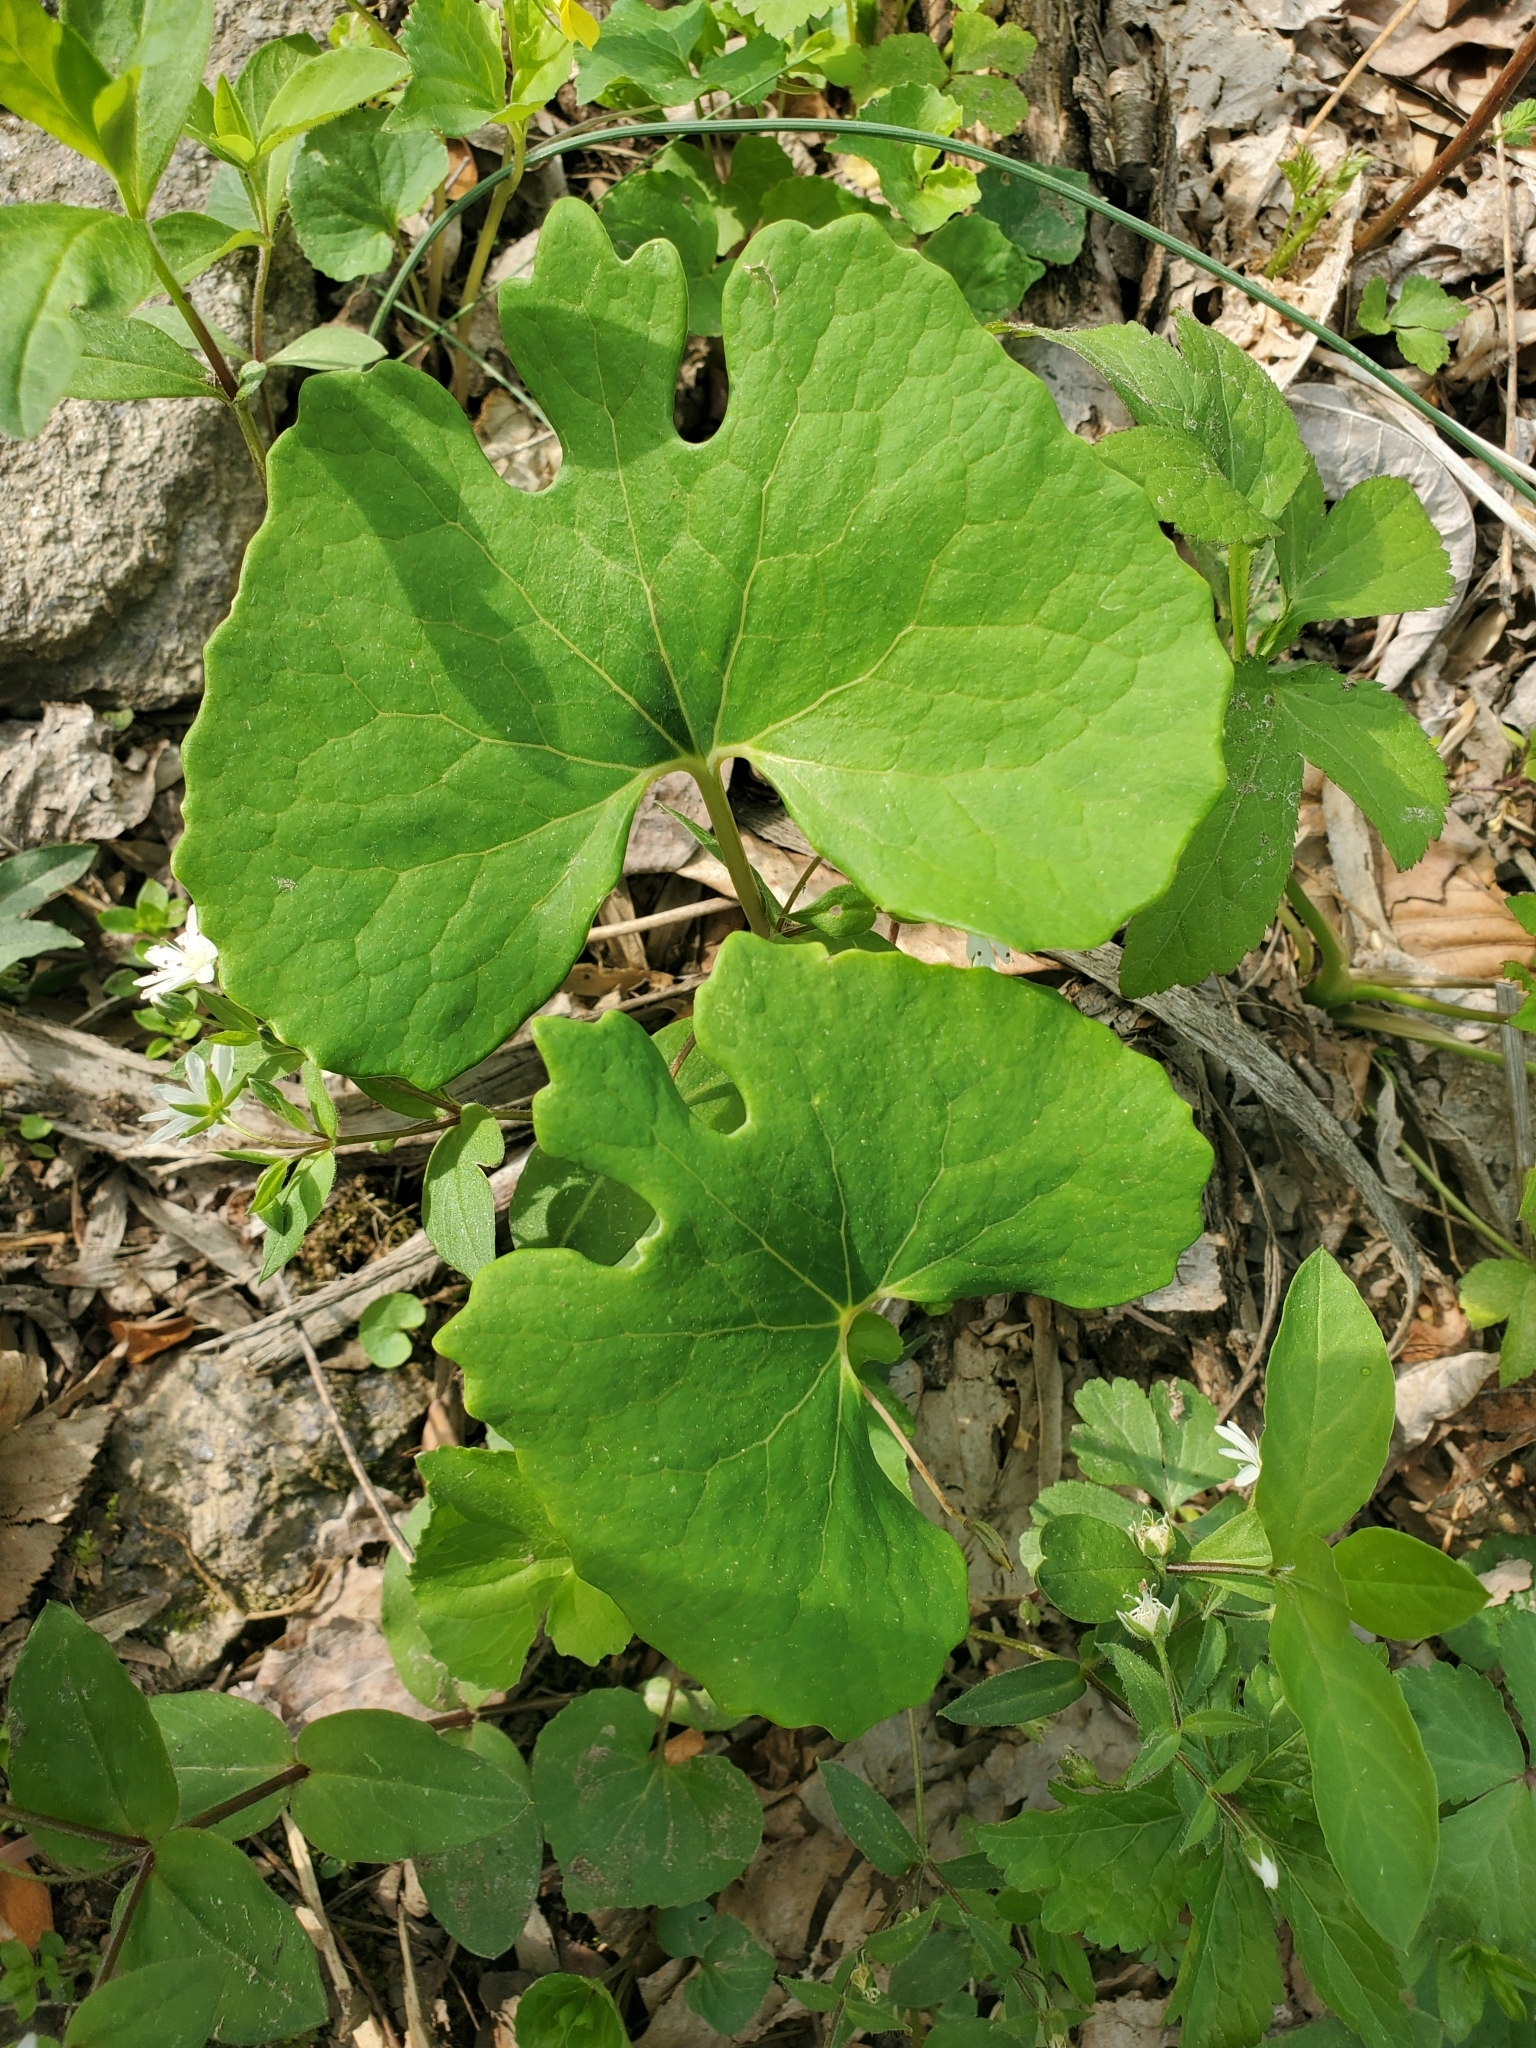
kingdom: Plantae
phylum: Tracheophyta
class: Magnoliopsida
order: Ranunculales
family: Papaveraceae
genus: Sanguinaria
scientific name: Sanguinaria canadensis
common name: Bloodroot
